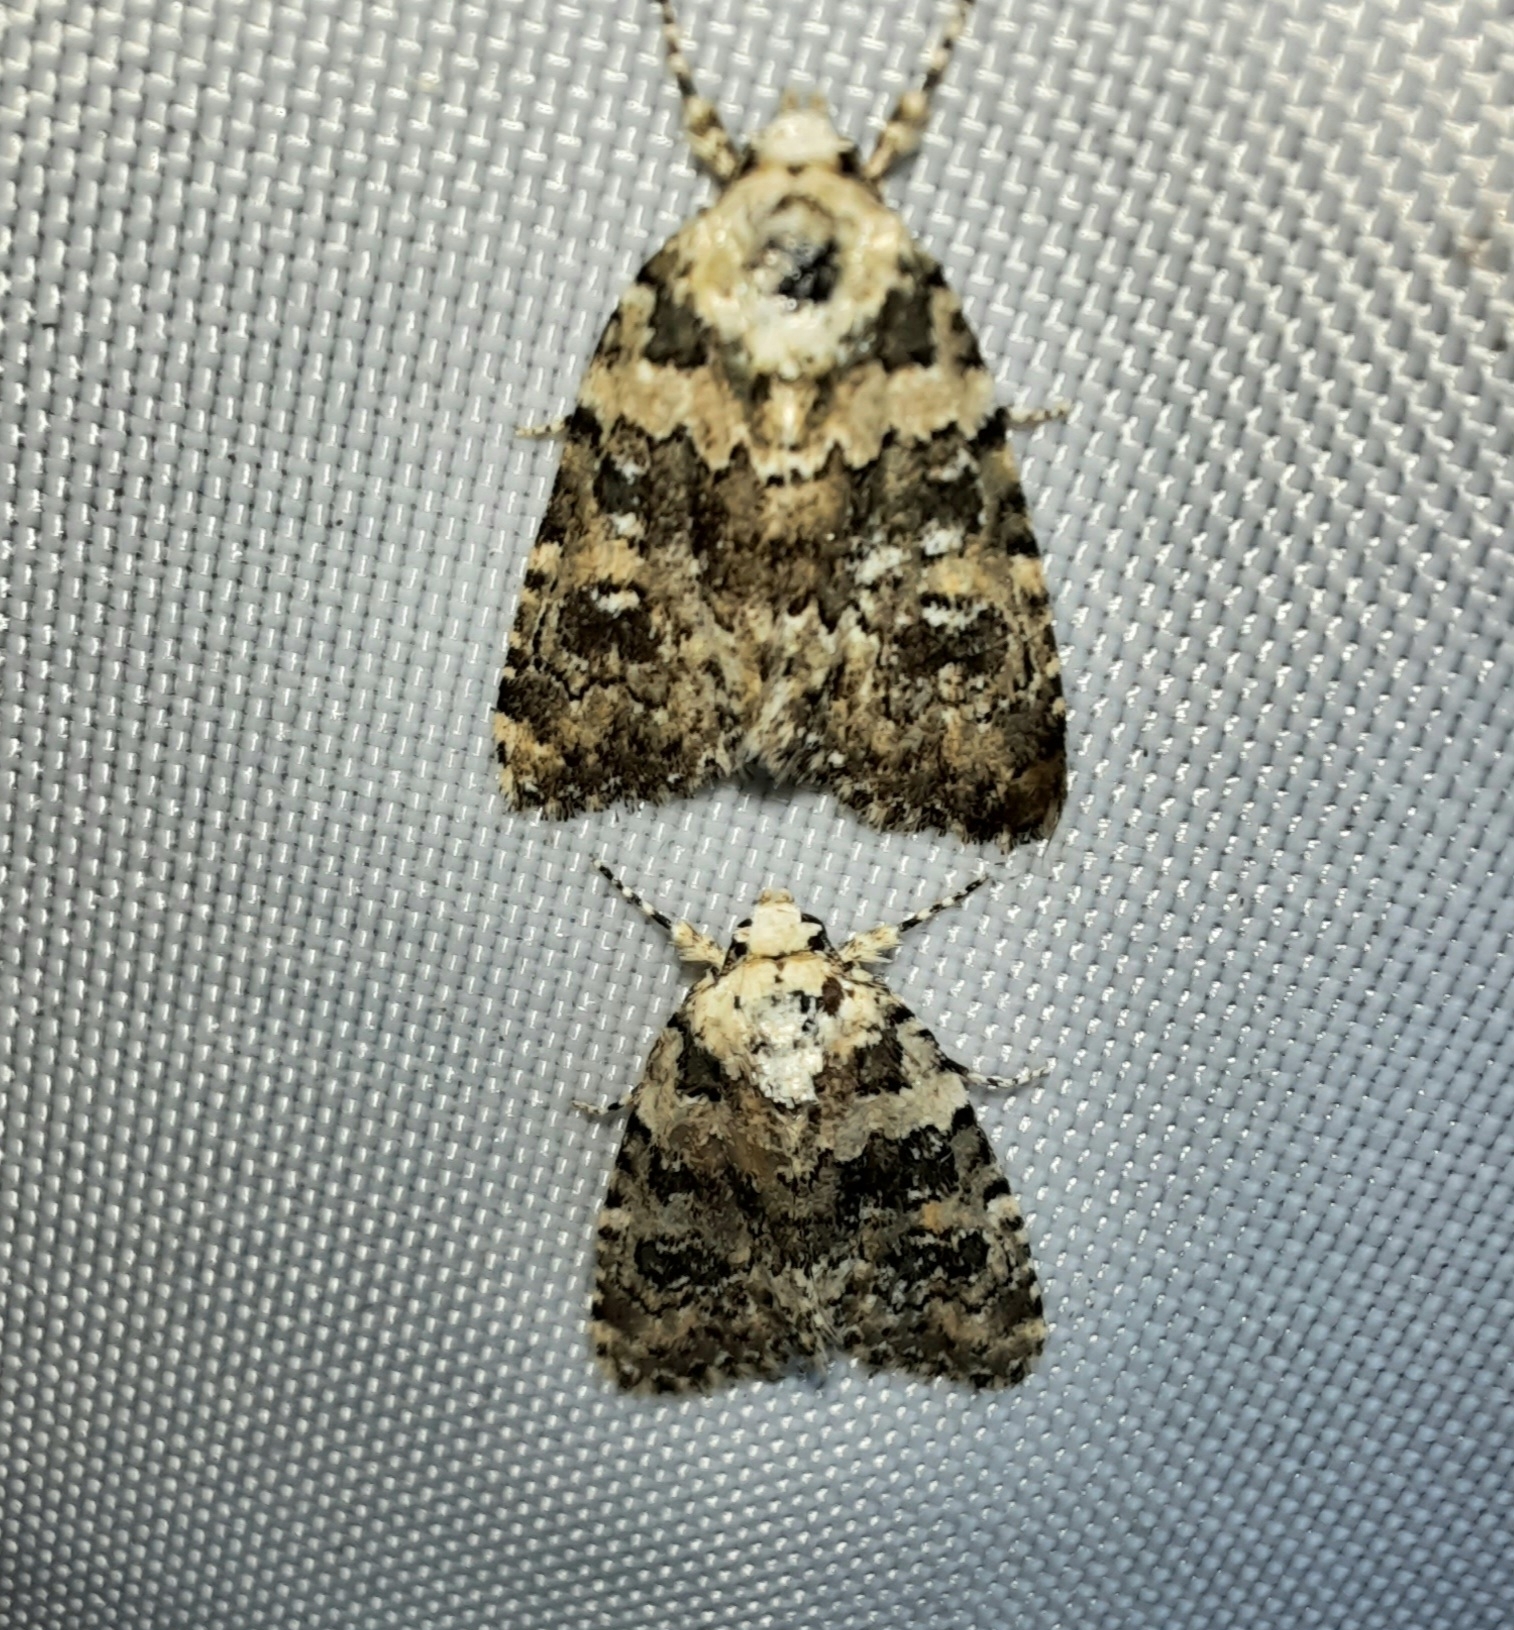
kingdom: Animalia
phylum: Arthropoda
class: Insecta
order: Lepidoptera
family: Noctuidae
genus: Bryophila
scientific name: Bryophila domestica
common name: Marbled beauty
